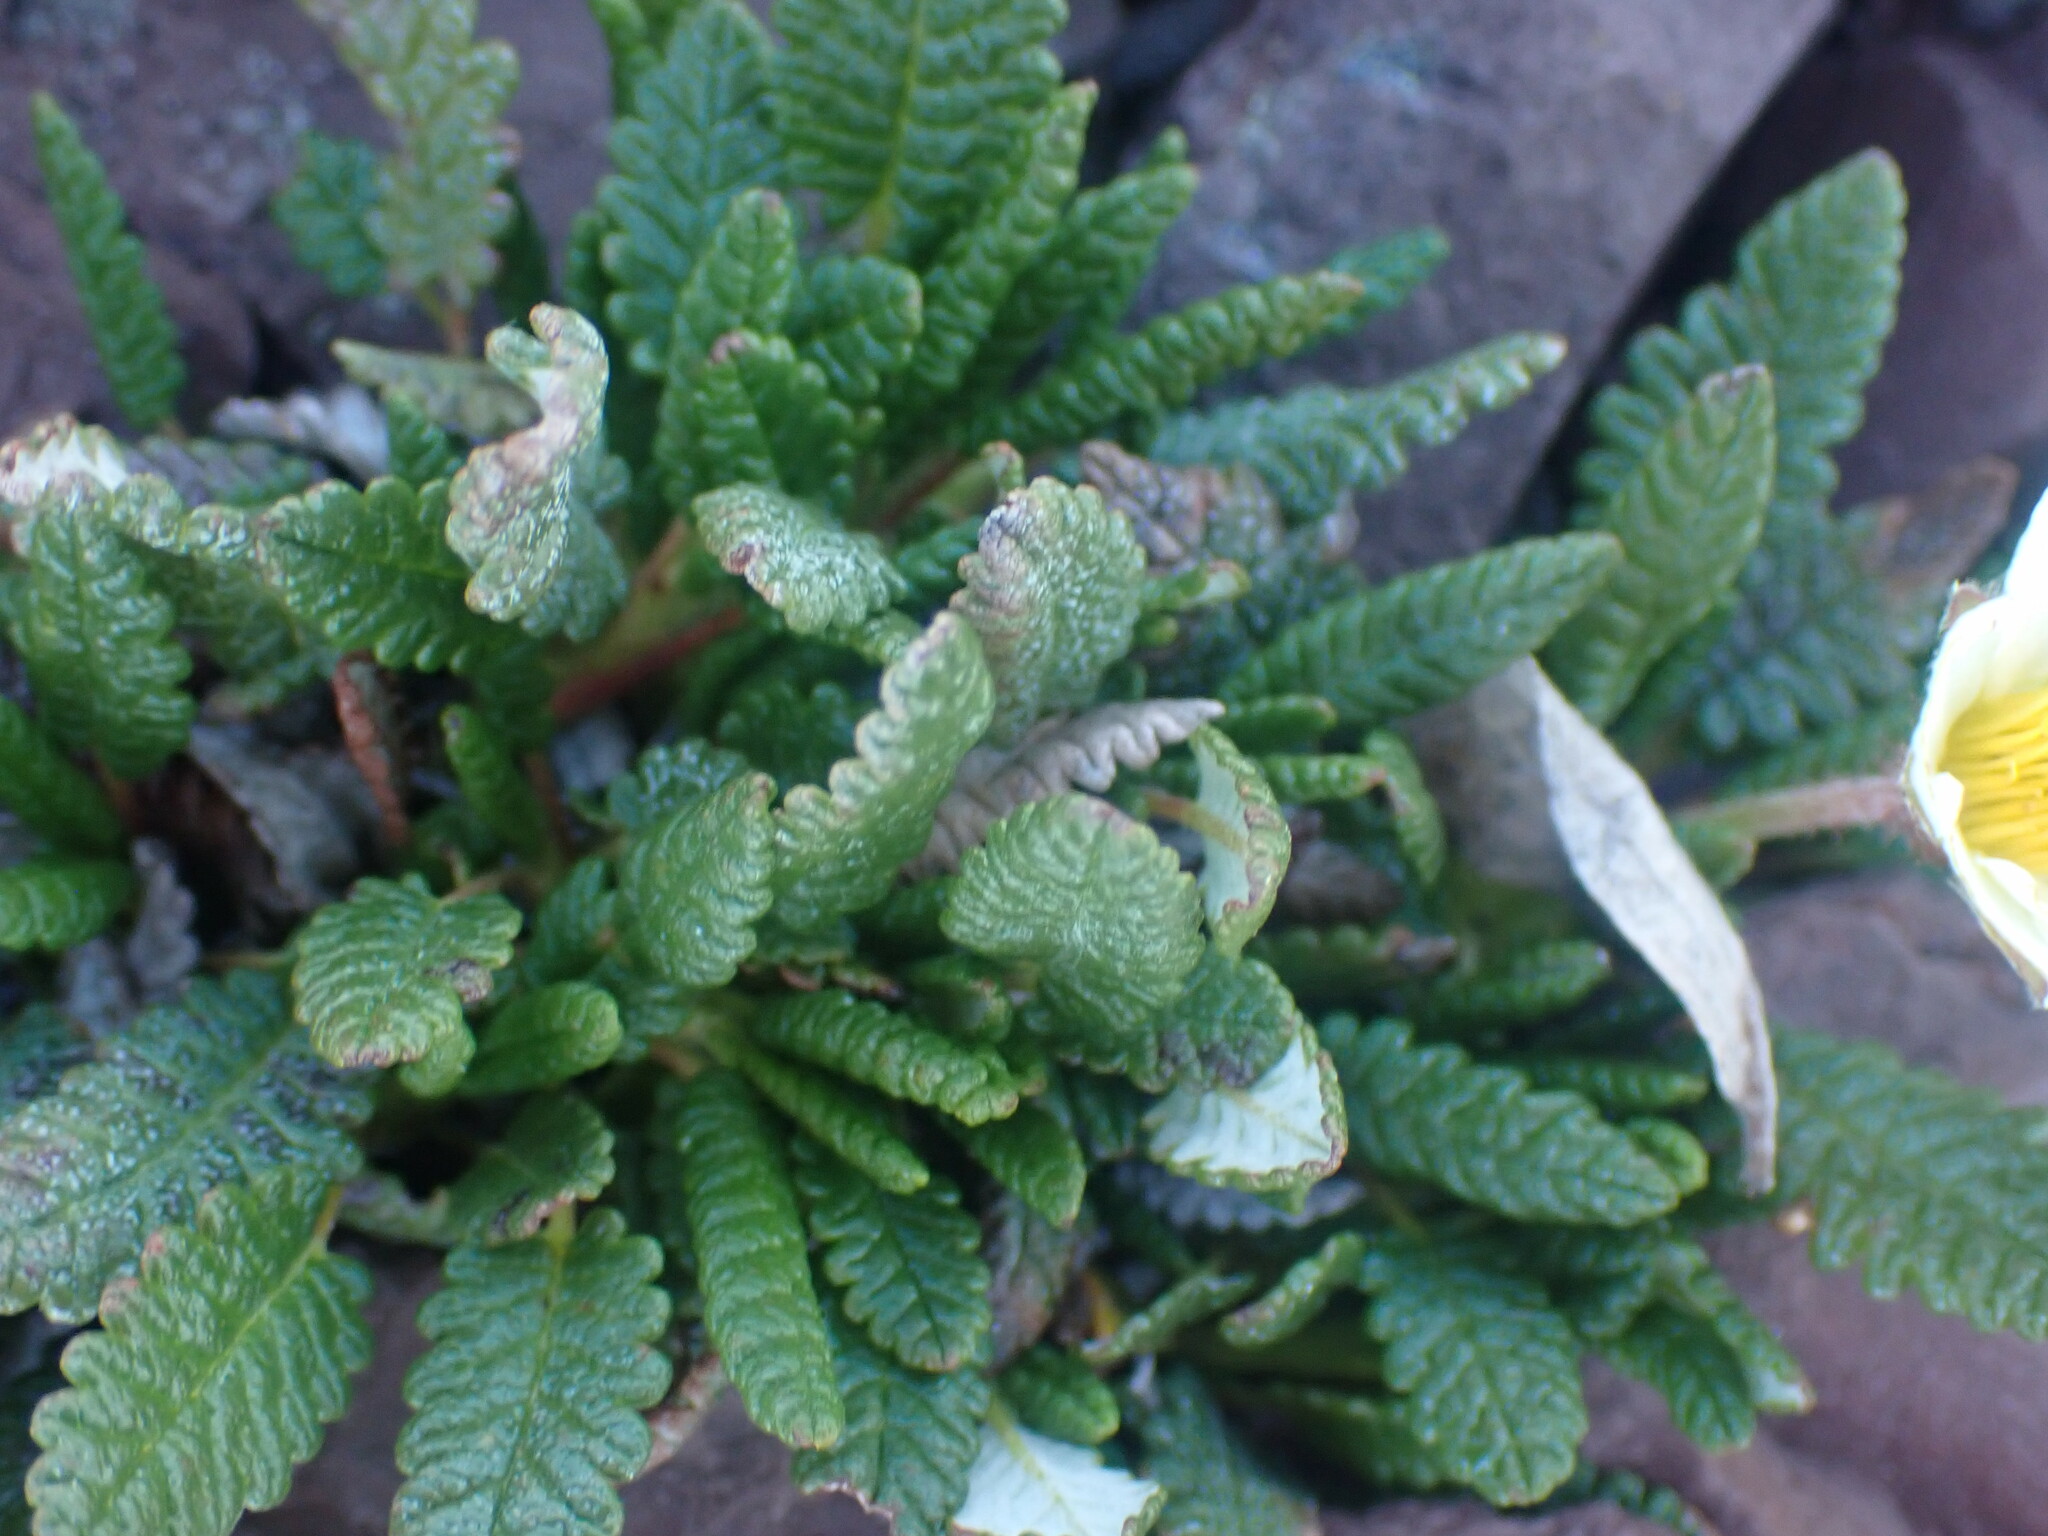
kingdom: Plantae
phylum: Tracheophyta
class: Magnoliopsida
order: Rosales
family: Rosaceae
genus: Dryas
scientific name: Dryas octopetala
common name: Eight-petal mountain-avens
